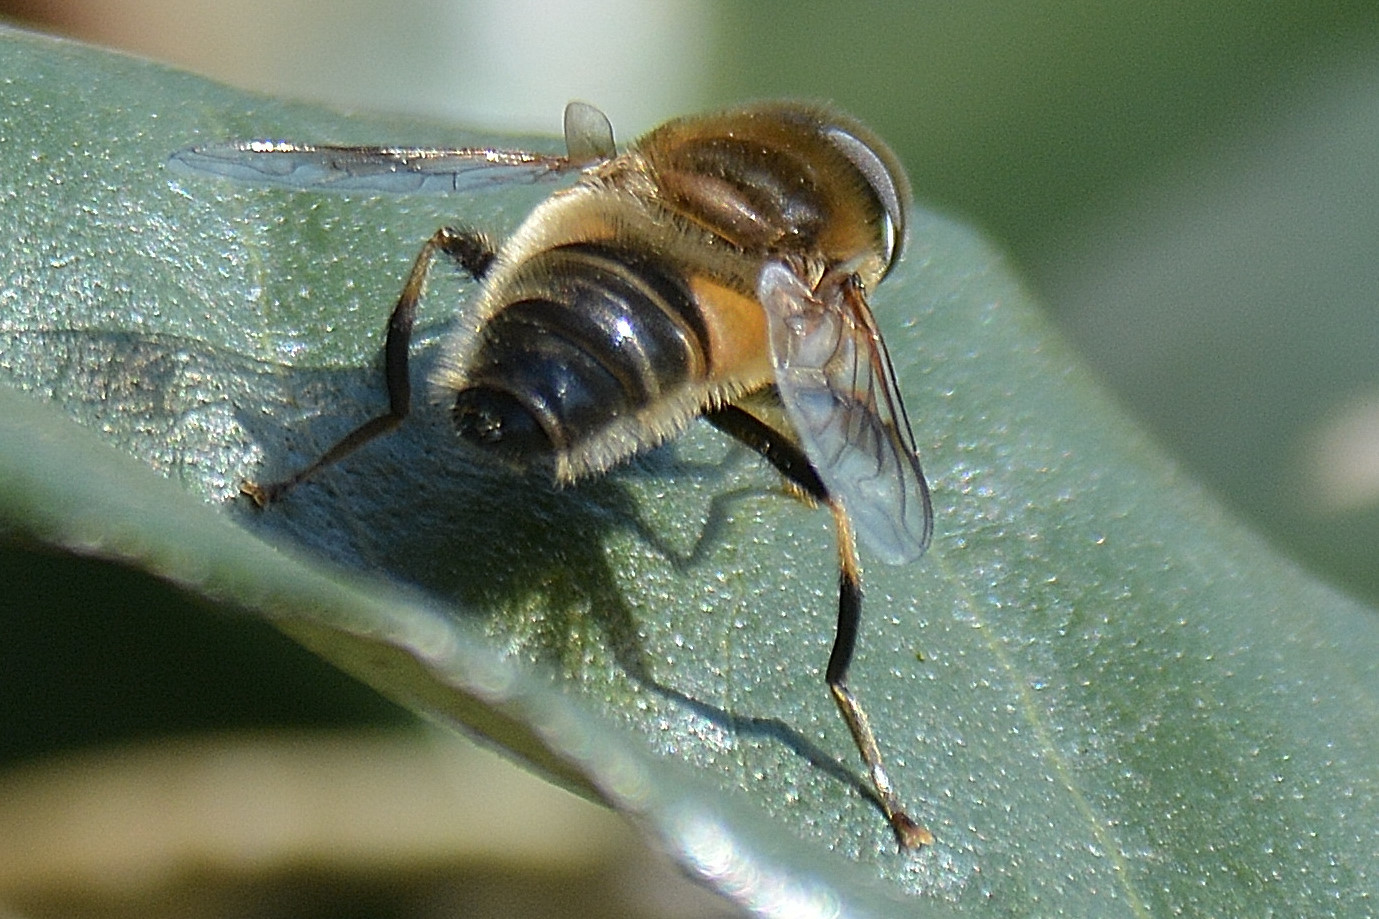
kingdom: Animalia
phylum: Arthropoda
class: Insecta
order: Diptera
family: Syrphidae
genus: Eristalis
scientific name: Eristalis pertinax
